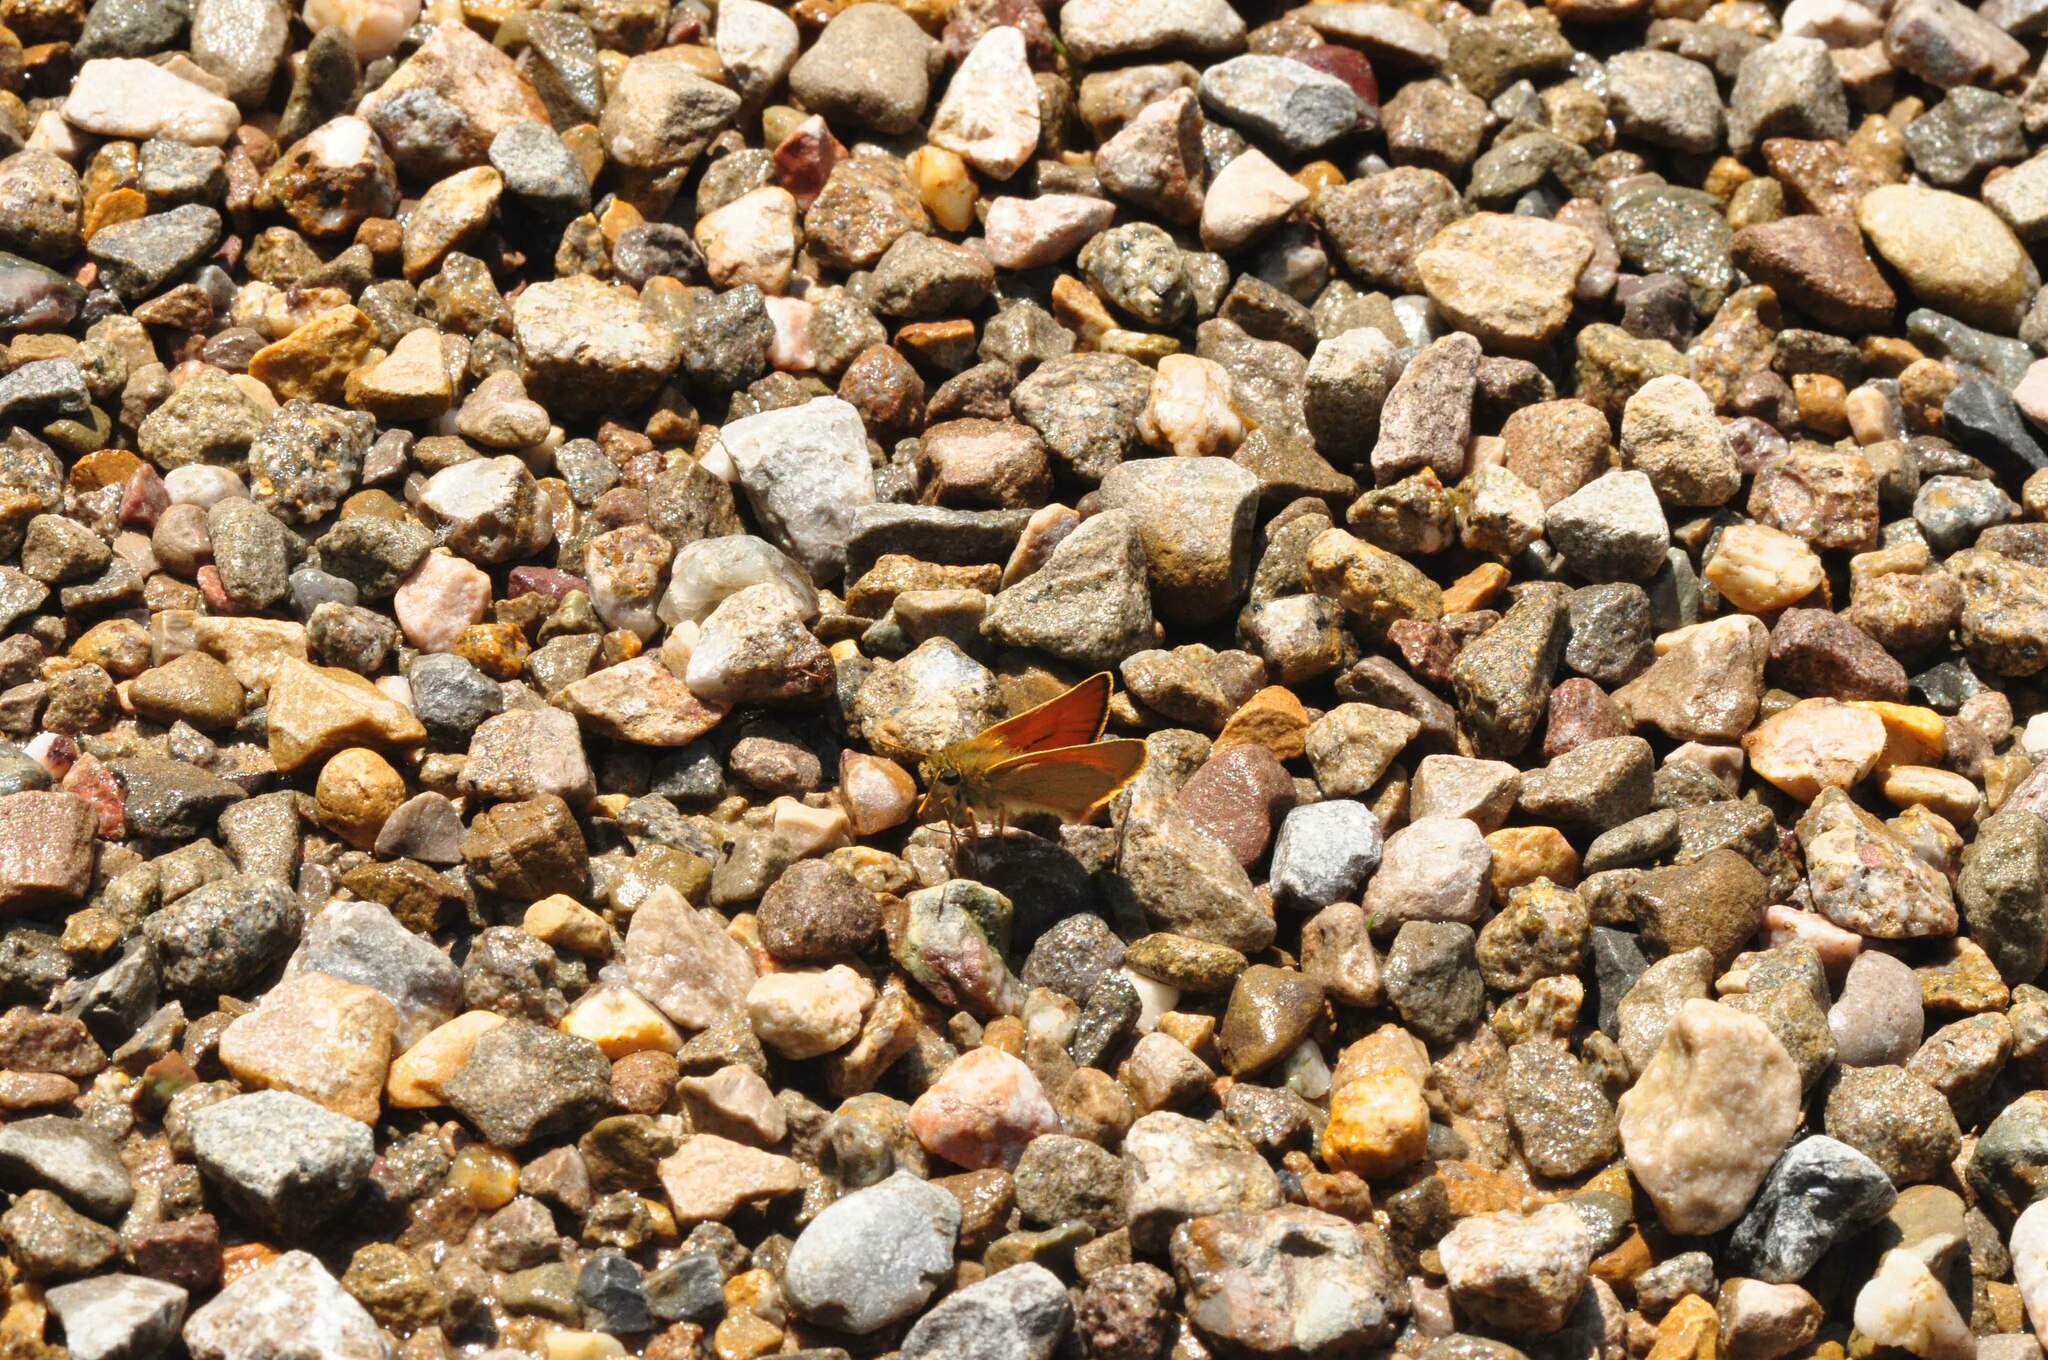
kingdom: Animalia
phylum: Arthropoda
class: Insecta
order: Lepidoptera
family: Hesperiidae
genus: Thymelicus
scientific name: Thymelicus sylvestris
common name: Small skipper
